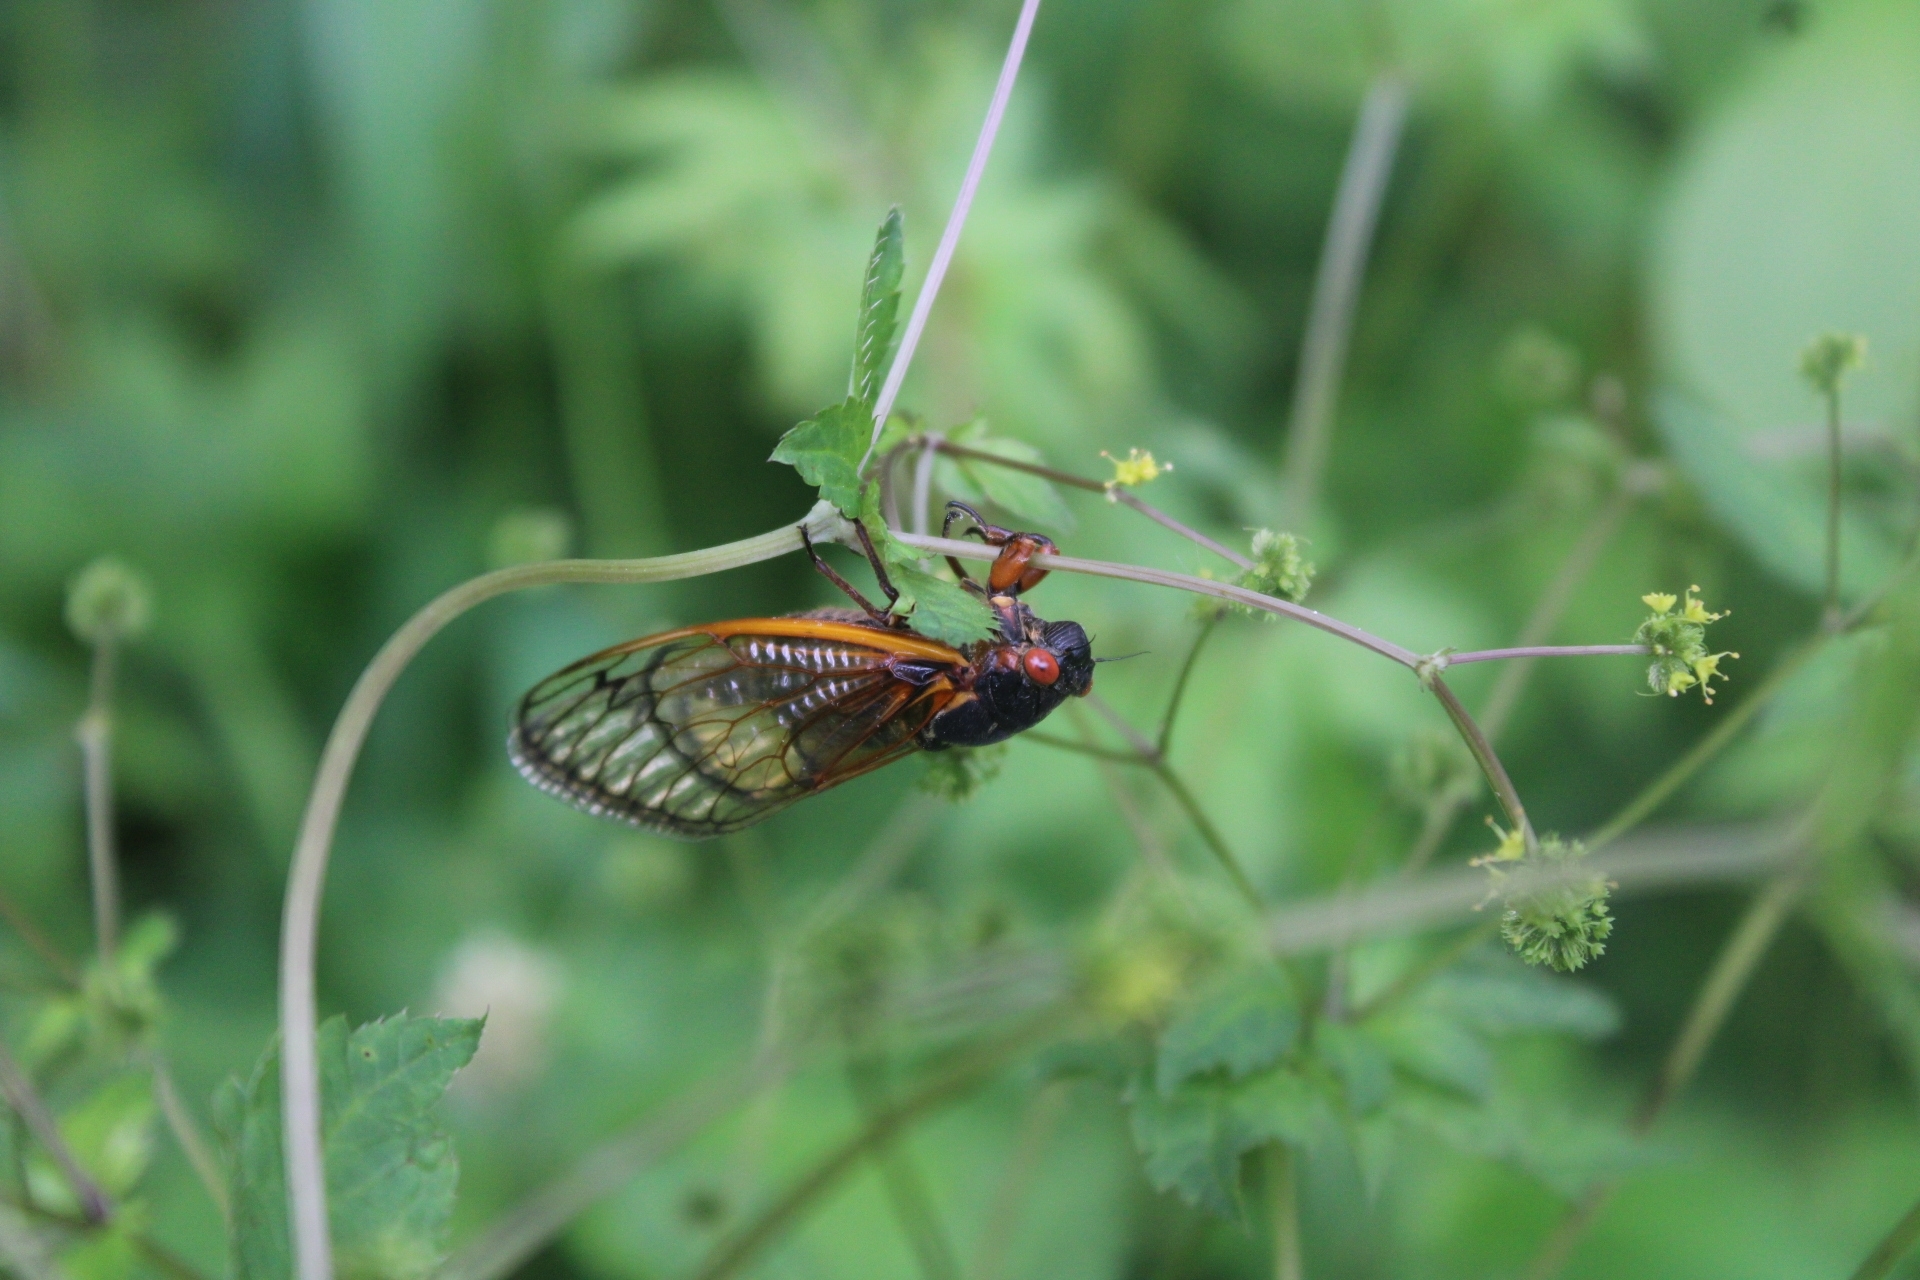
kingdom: Animalia
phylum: Arthropoda
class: Insecta
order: Hemiptera
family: Cicadidae
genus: Magicicada
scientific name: Magicicada septendecim
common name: Periodical cicada
